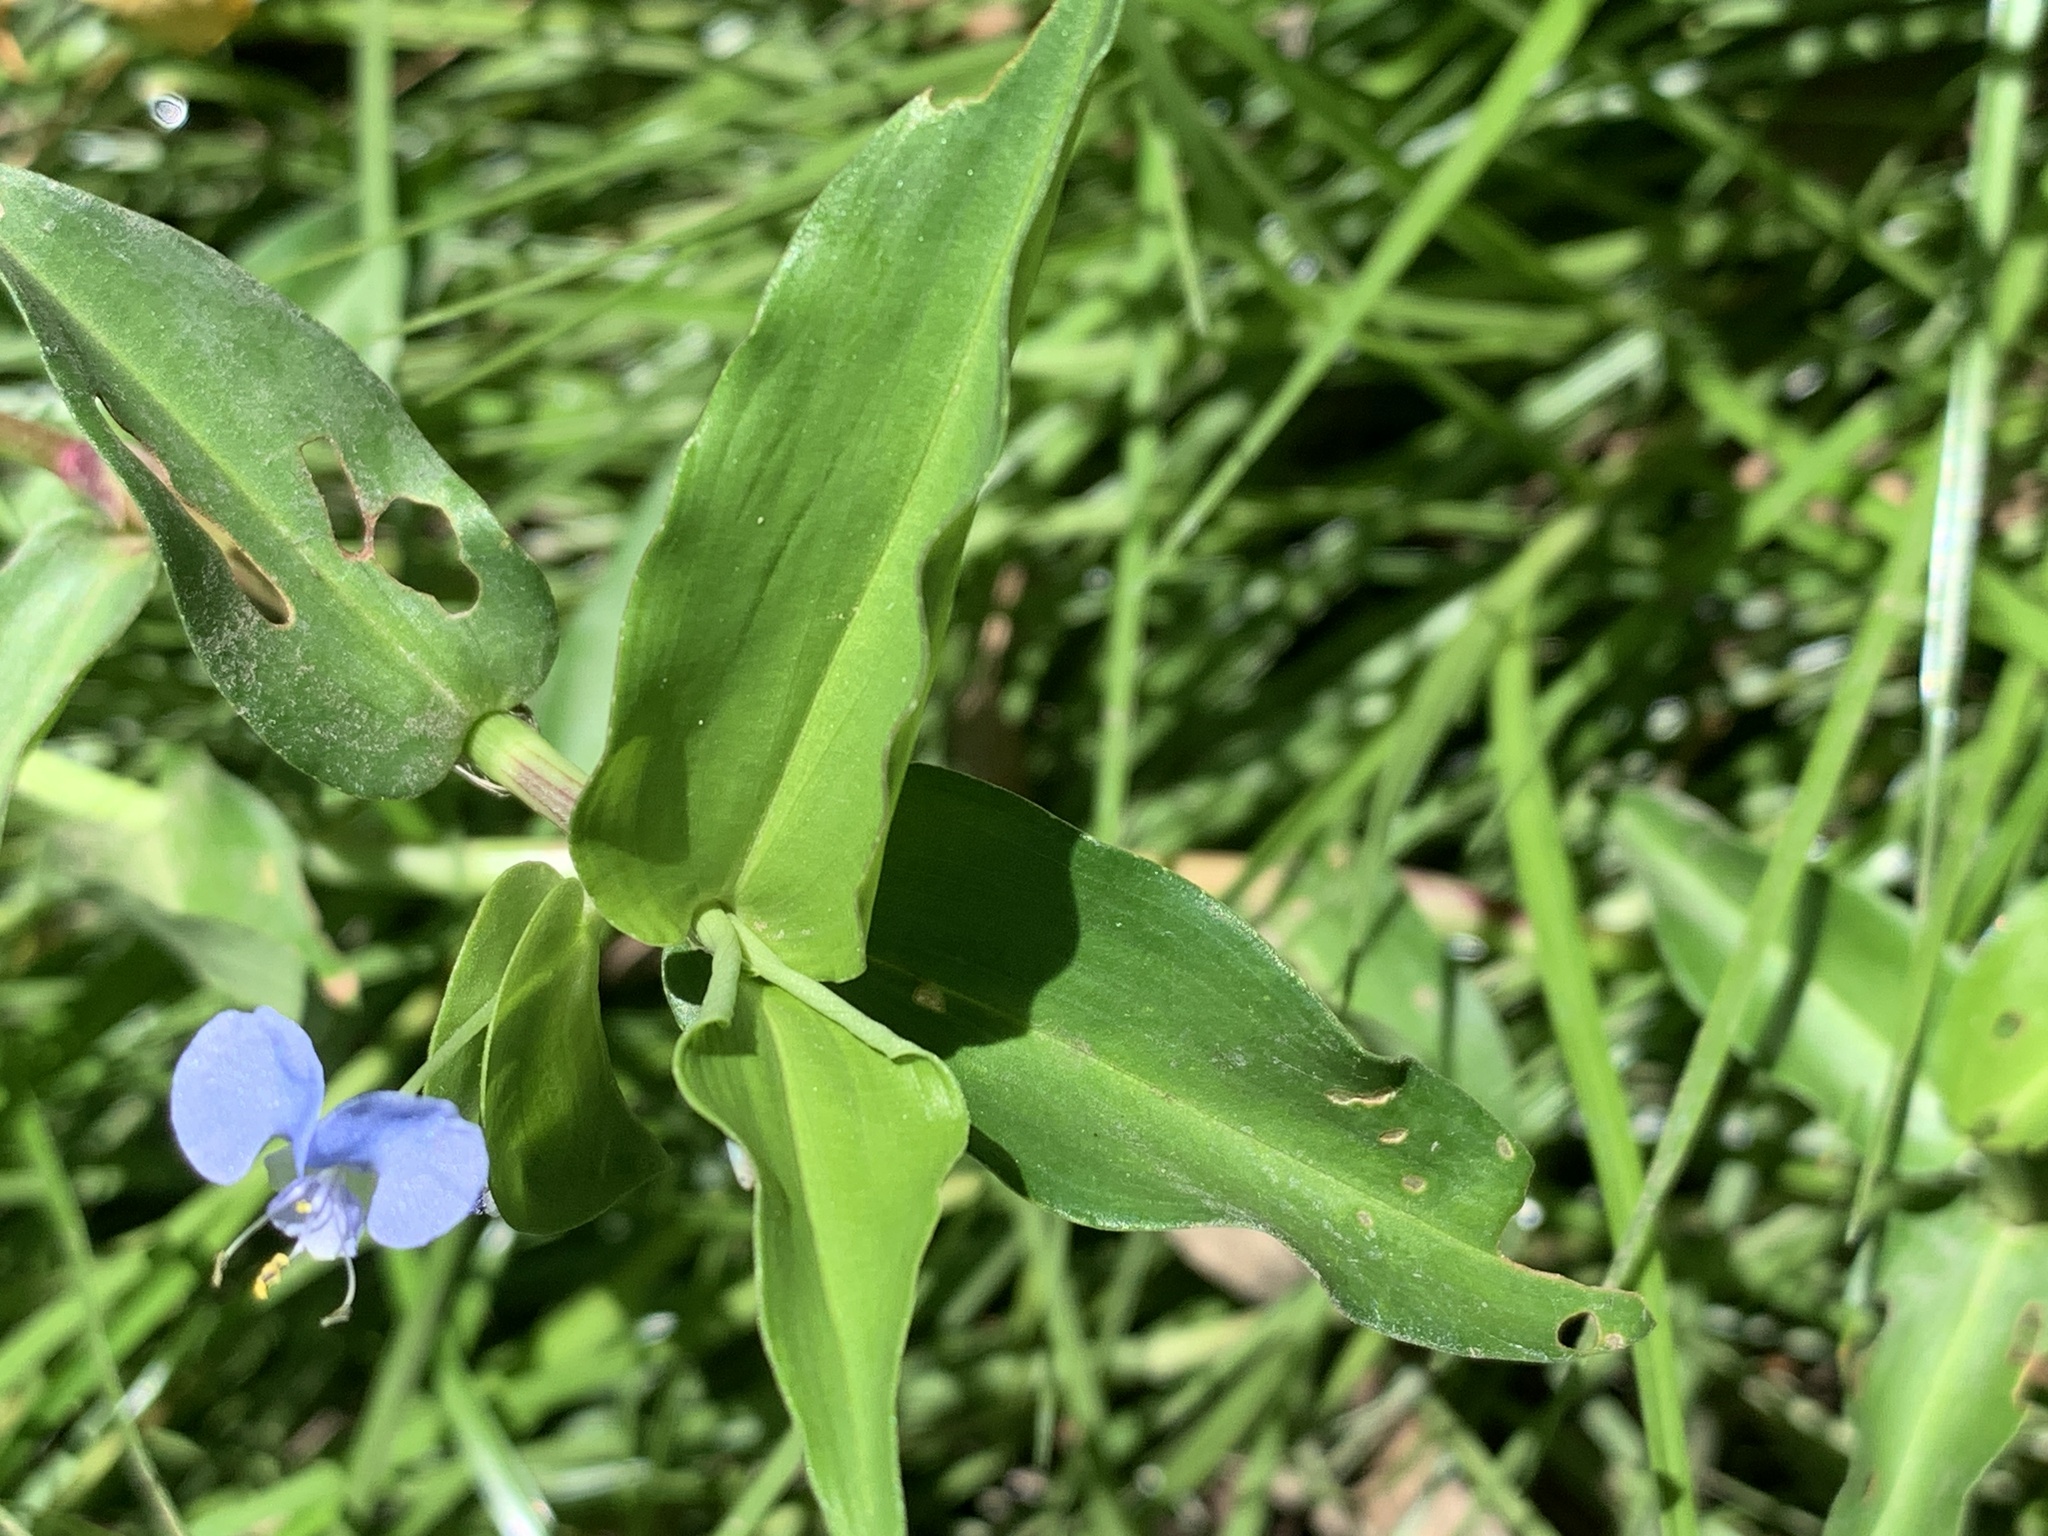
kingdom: Plantae
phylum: Tracheophyta
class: Liliopsida
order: Commelinales
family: Commelinaceae
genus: Commelina
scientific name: Commelina diffusa
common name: Climbing dayflower
